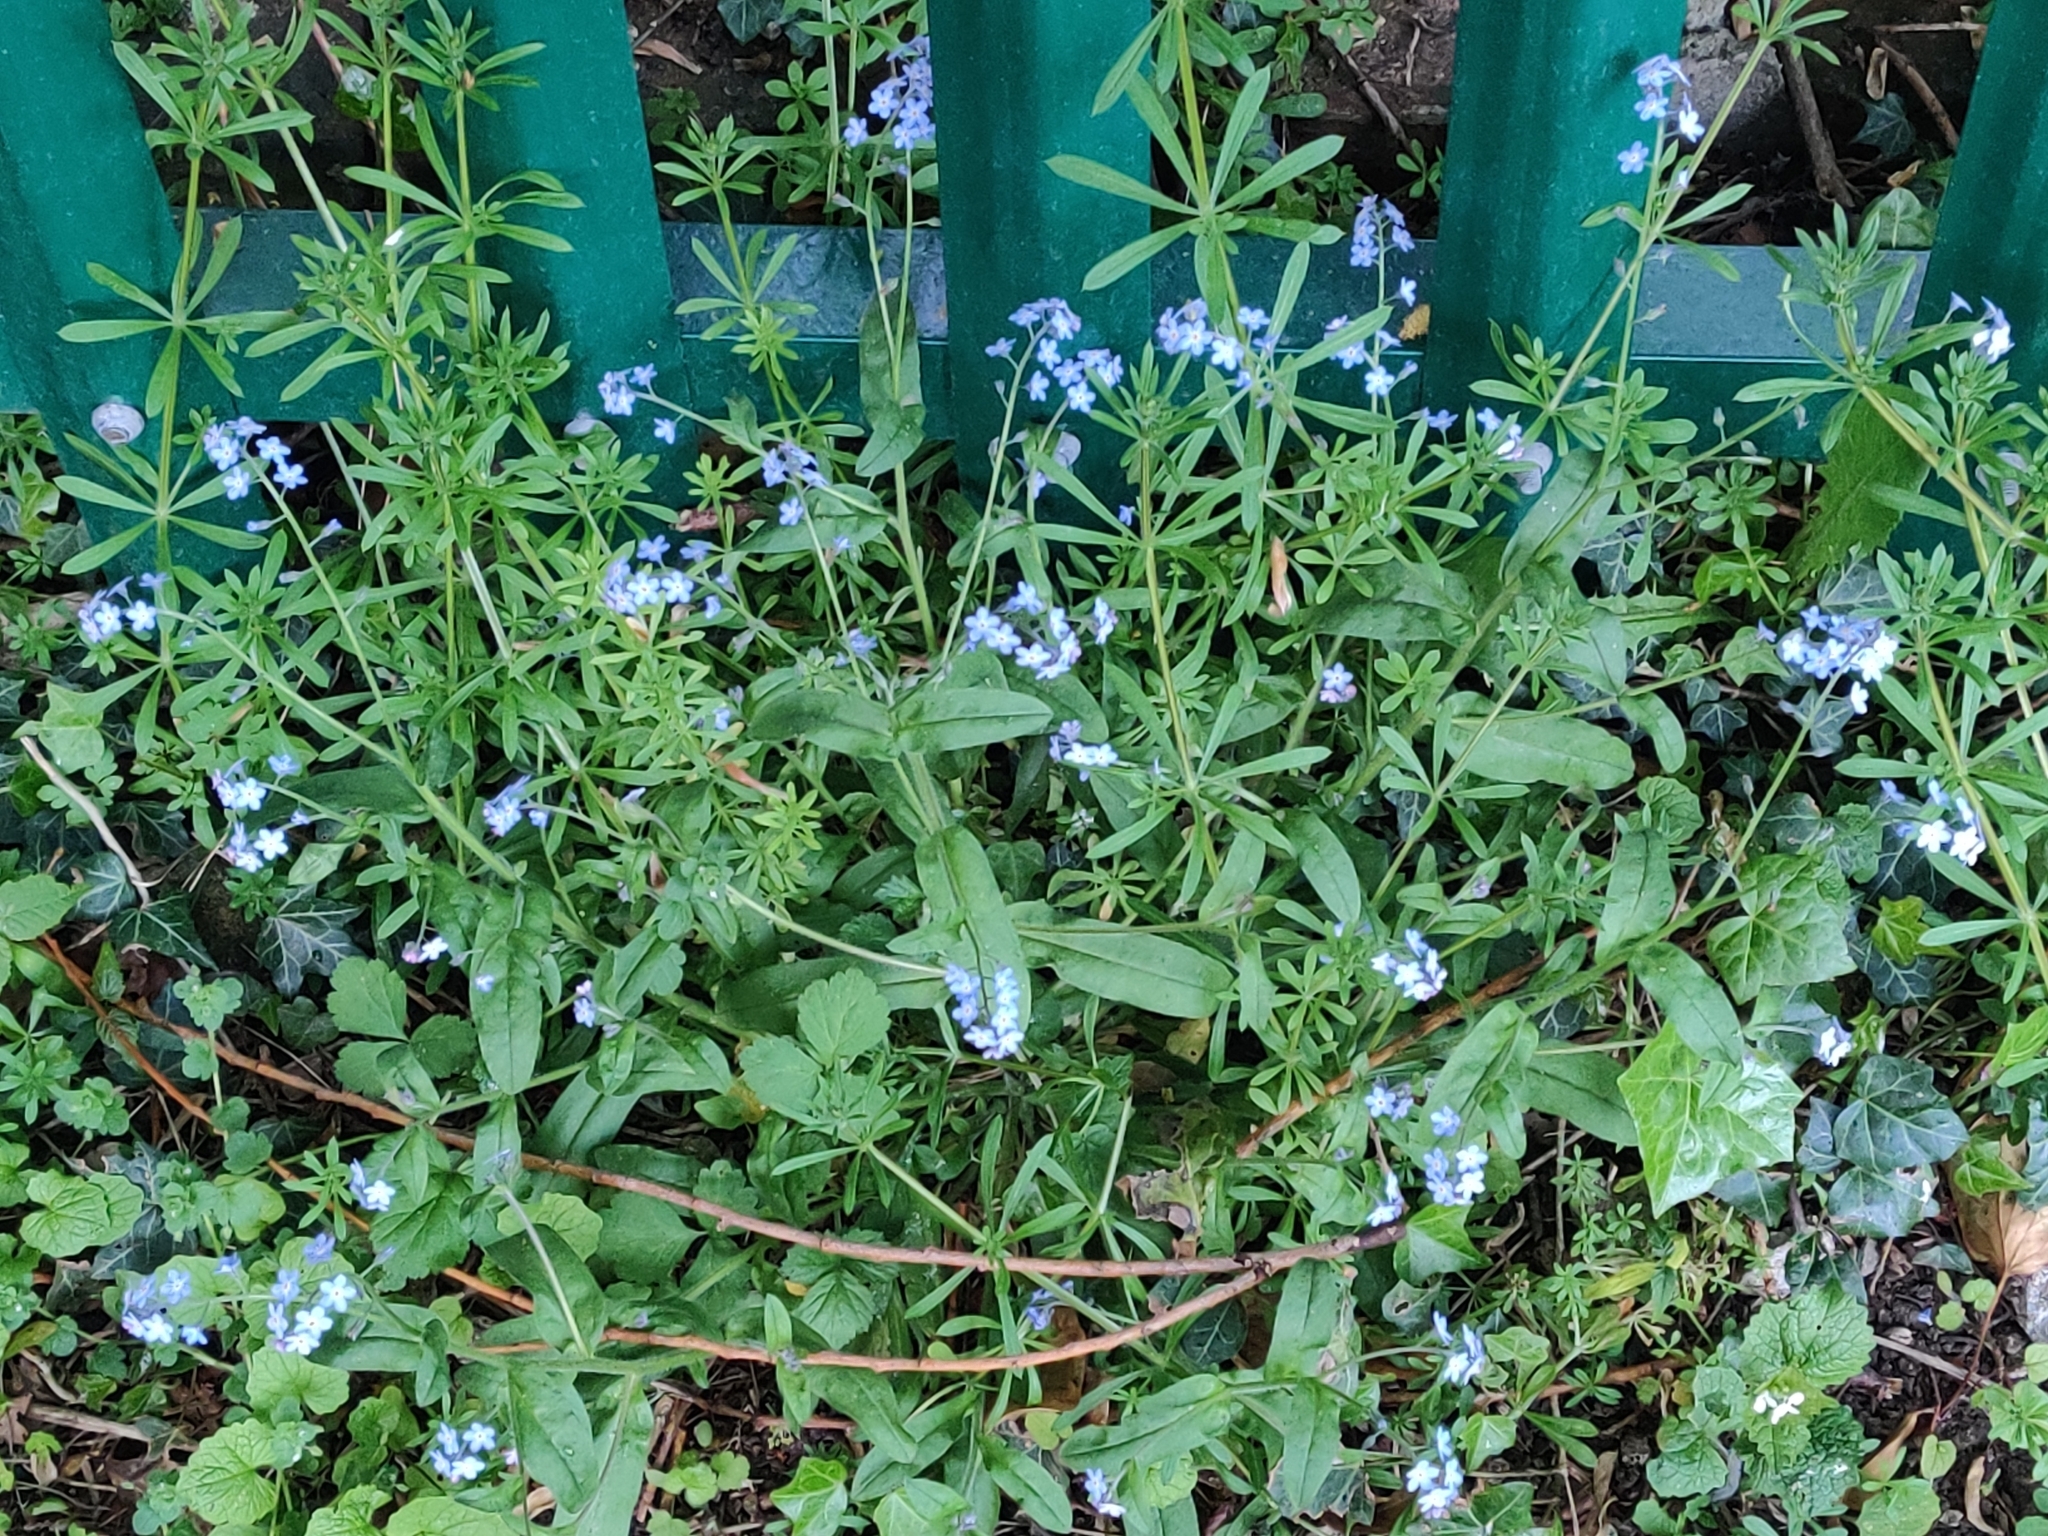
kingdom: Plantae
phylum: Tracheophyta
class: Magnoliopsida
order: Boraginales
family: Boraginaceae
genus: Myosotis
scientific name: Myosotis arvensis
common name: Field forget-me-not
